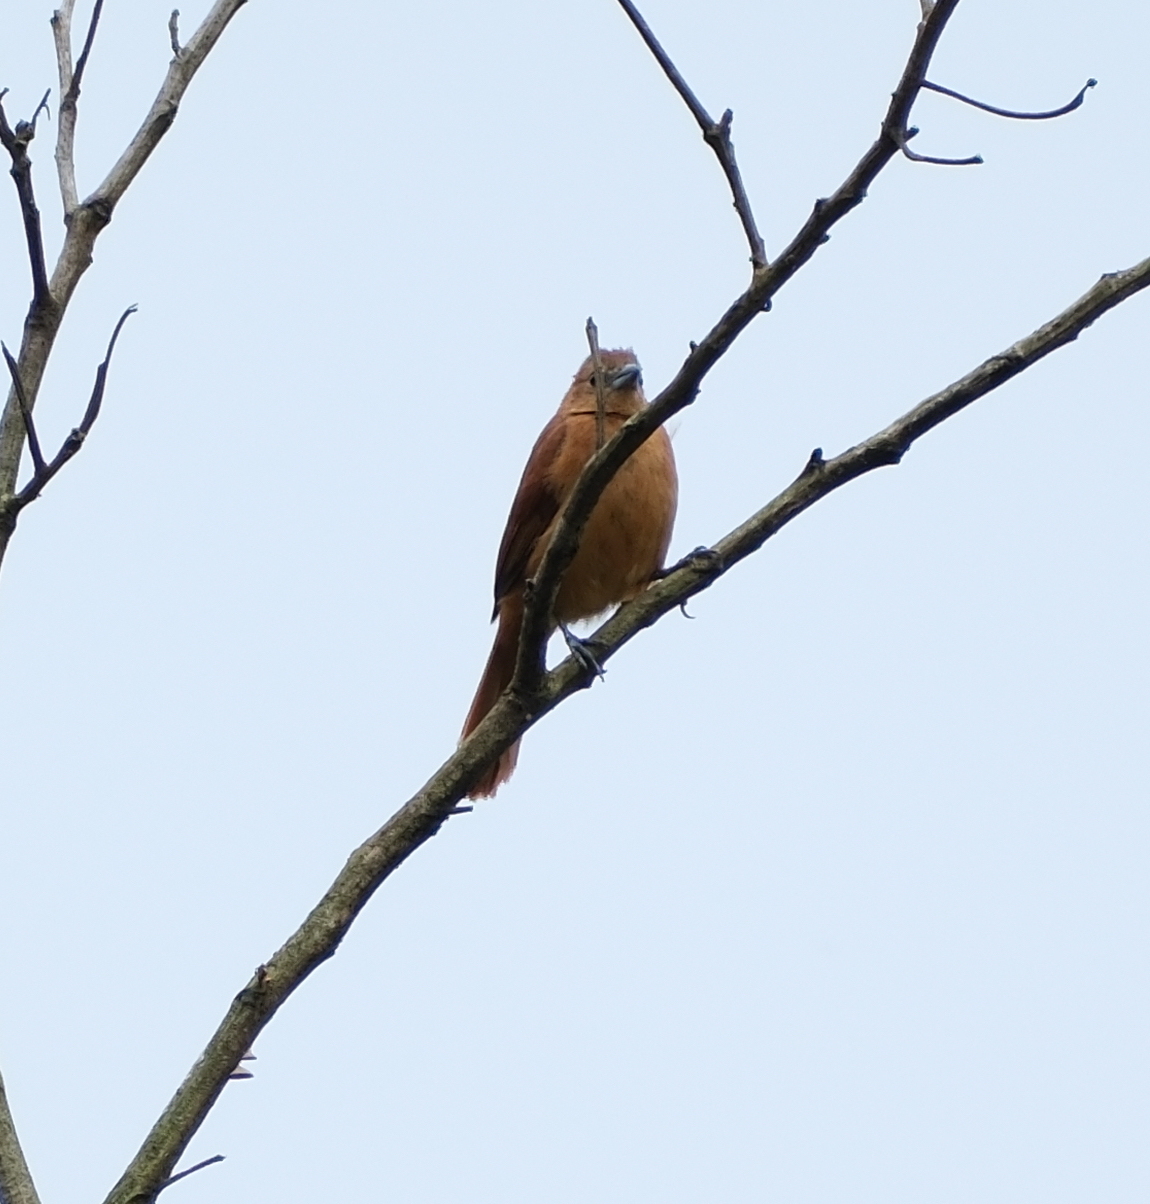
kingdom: Animalia
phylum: Chordata
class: Aves
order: Passeriformes
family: Thraupidae
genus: Tachyphonus
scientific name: Tachyphonus rufus
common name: White-lined tanager
